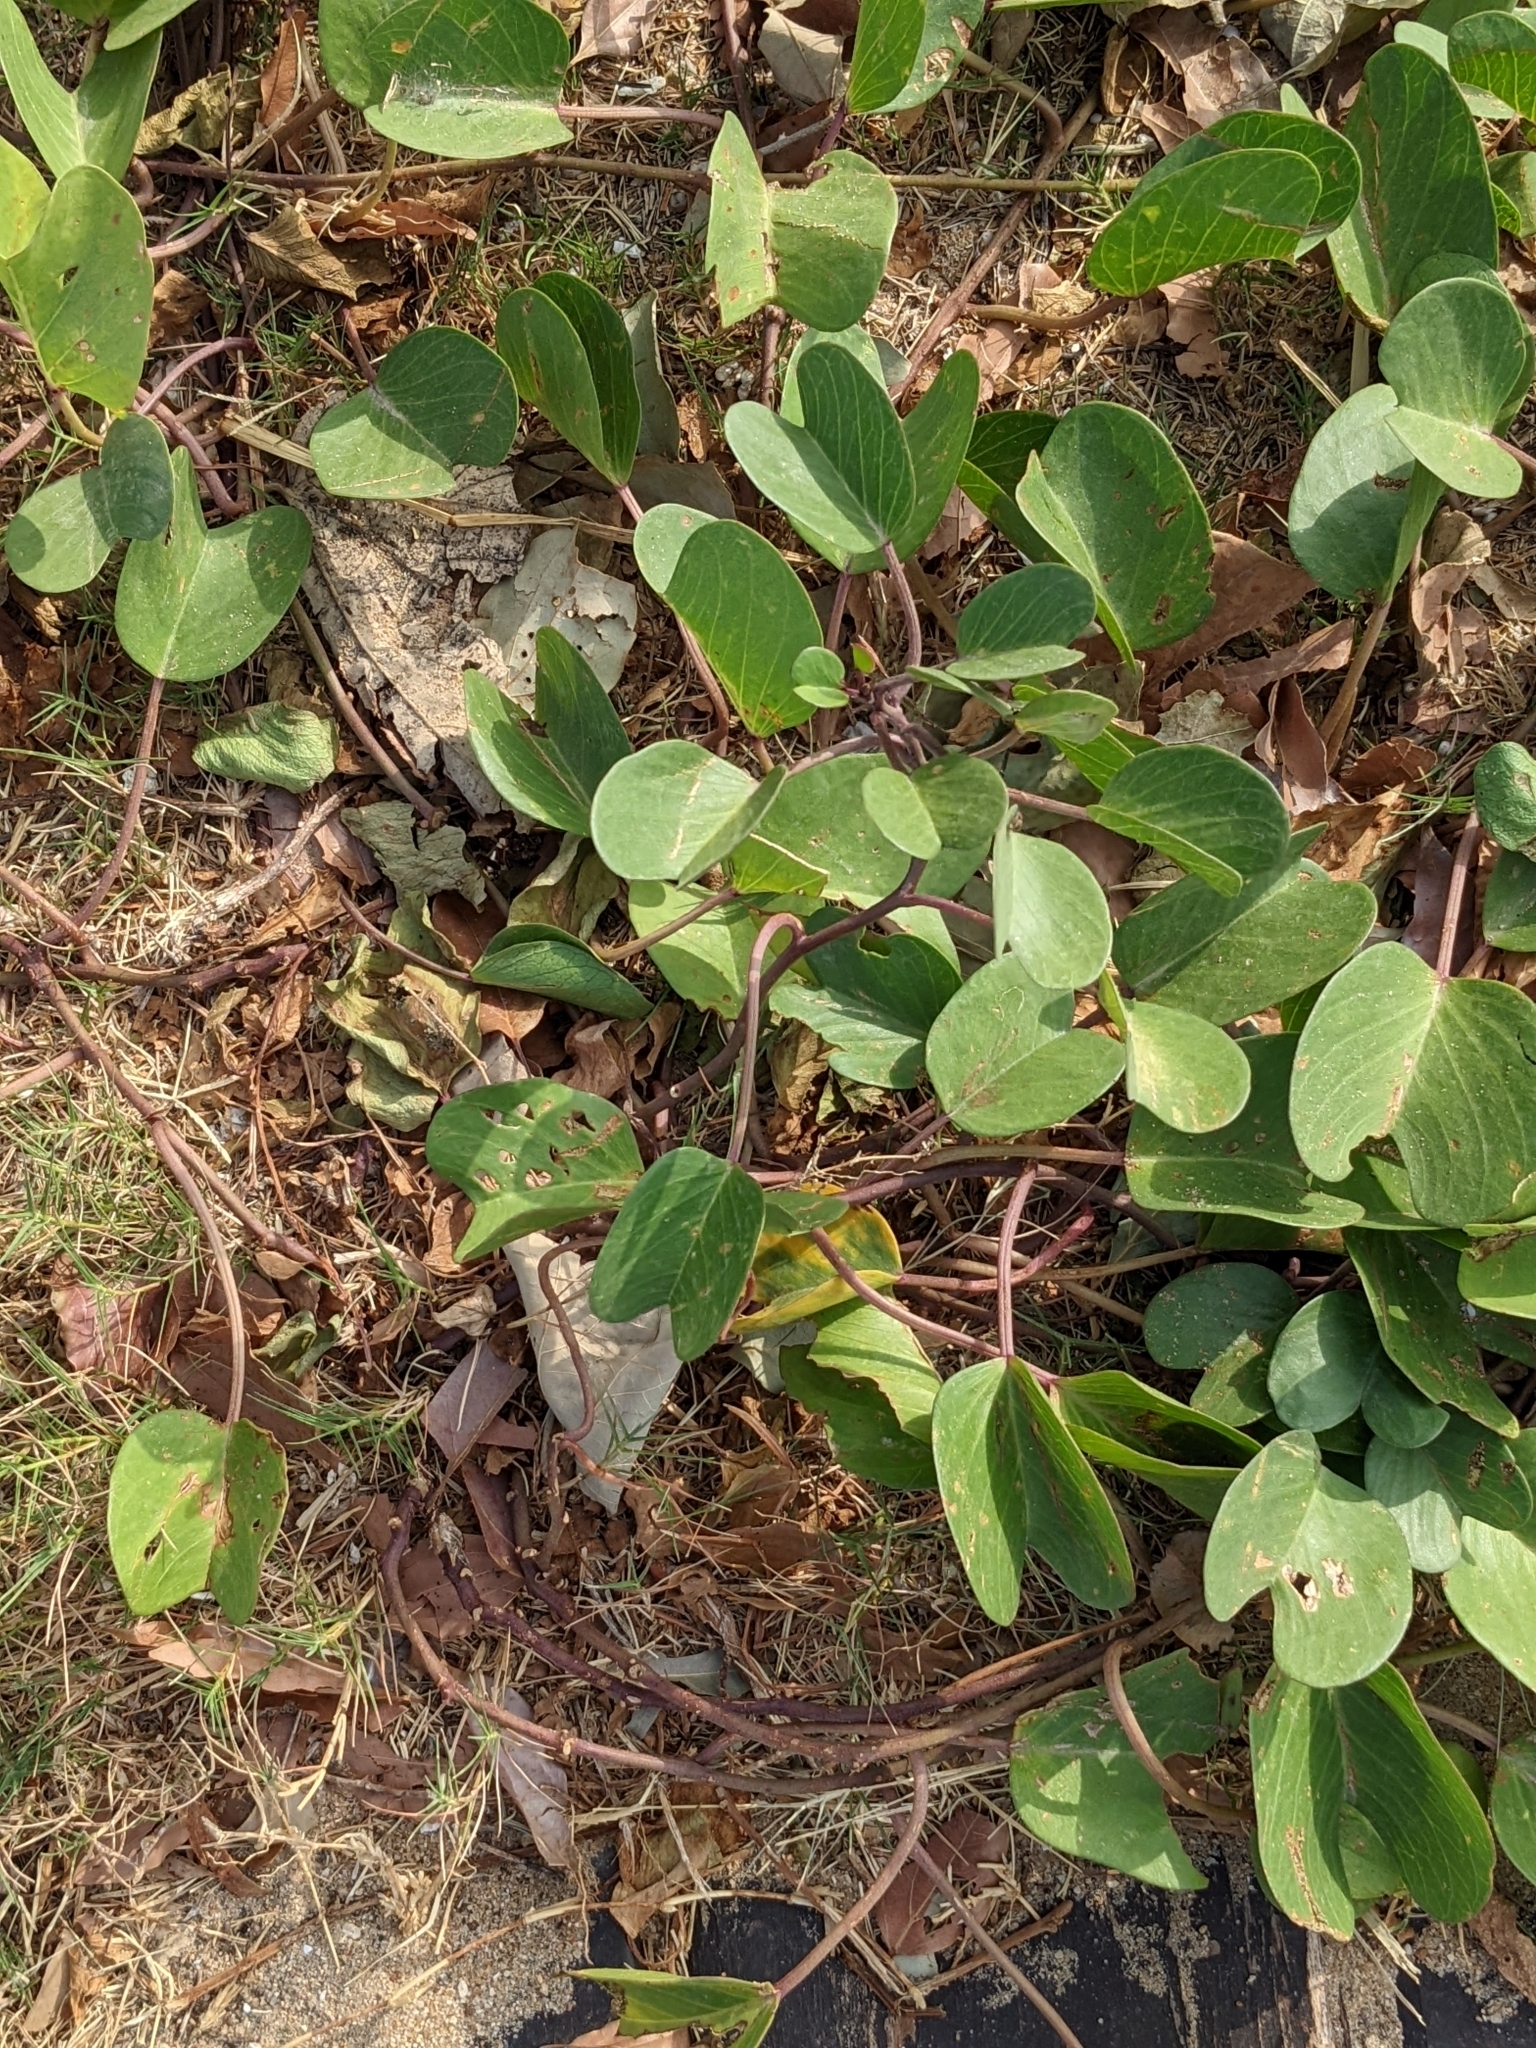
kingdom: Plantae
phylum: Tracheophyta
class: Magnoliopsida
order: Solanales
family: Convolvulaceae
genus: Ipomoea
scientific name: Ipomoea pes-caprae
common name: Beach morning glory
